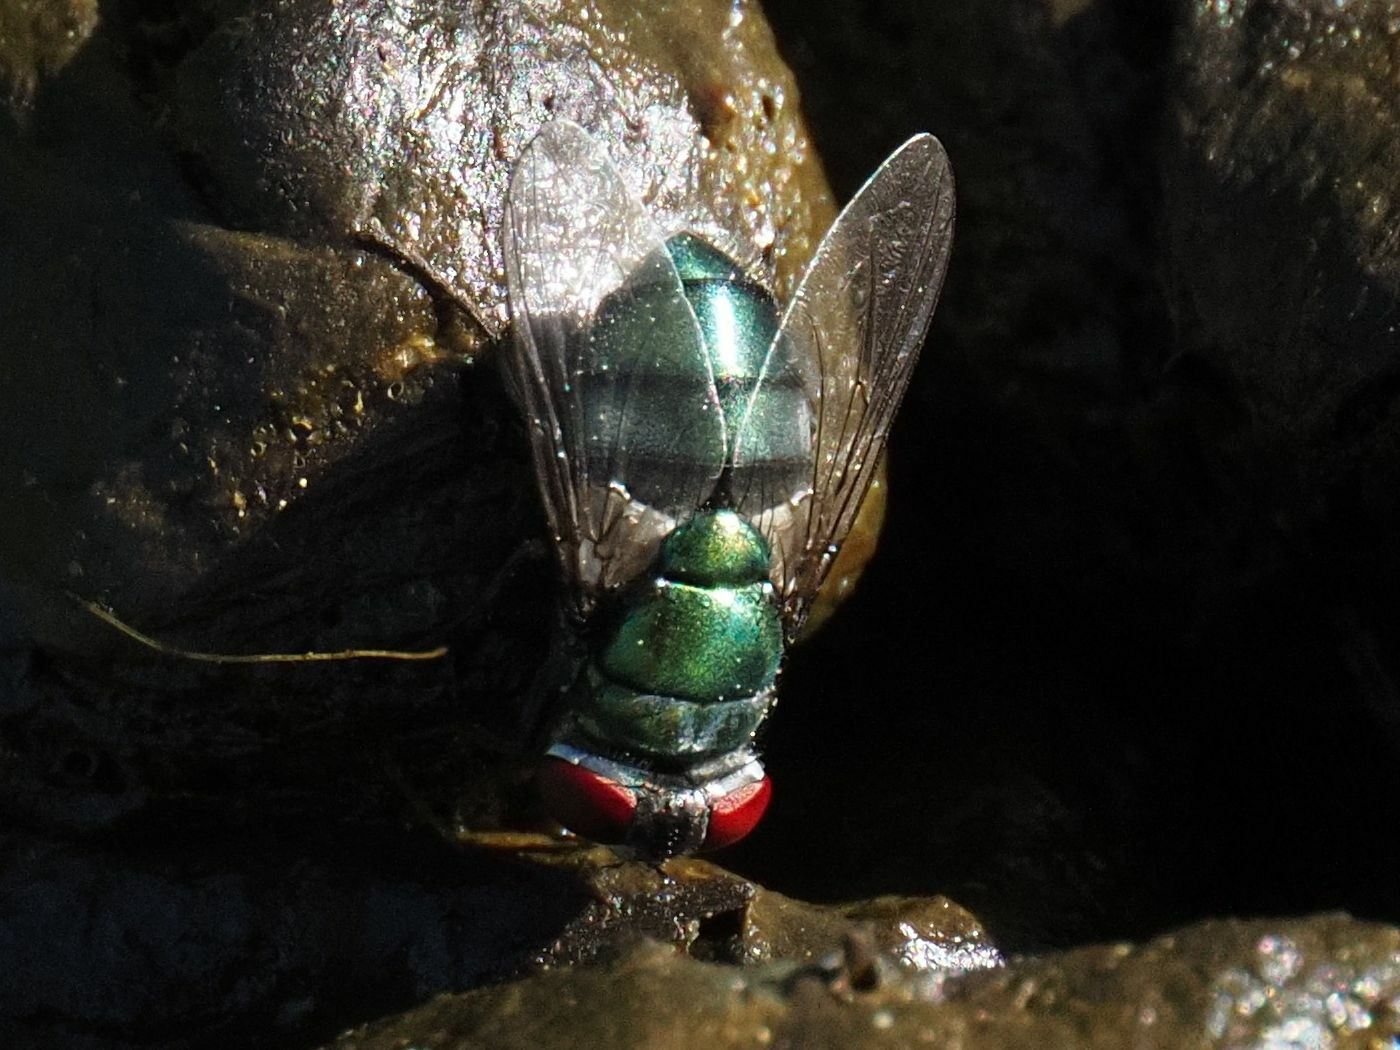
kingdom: Animalia
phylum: Arthropoda
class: Insecta
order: Diptera
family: Calliphoridae
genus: Chrysomya
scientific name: Chrysomya albiceps
